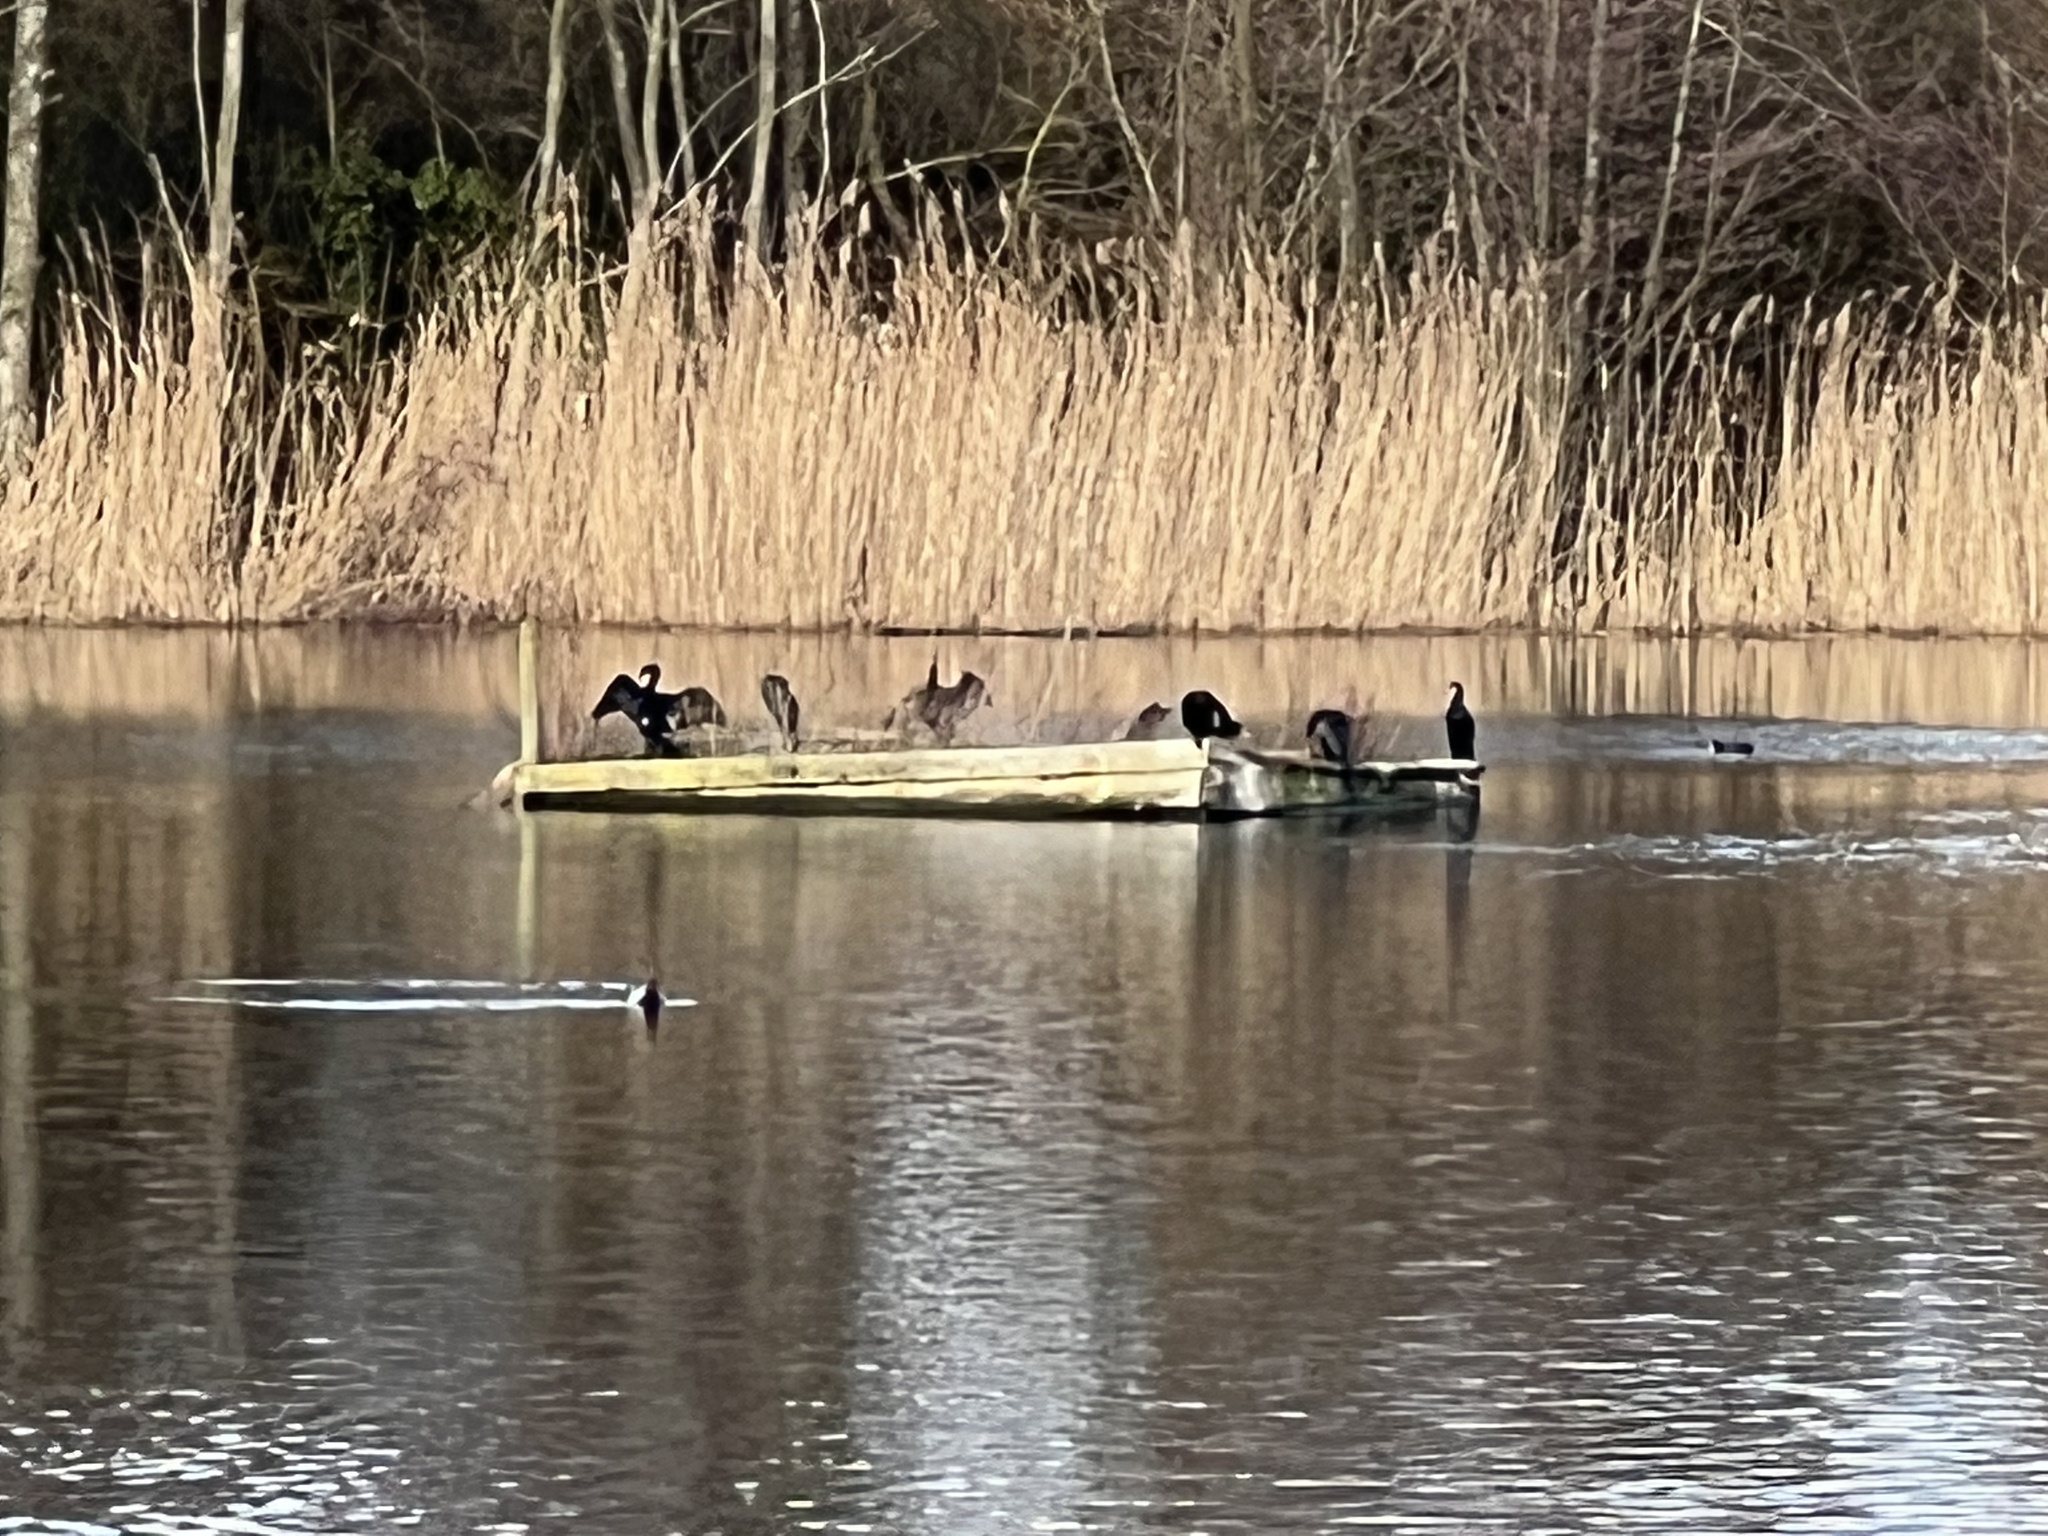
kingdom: Animalia
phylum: Chordata
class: Aves
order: Suliformes
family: Phalacrocoracidae
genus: Phalacrocorax
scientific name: Phalacrocorax carbo
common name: Great cormorant
